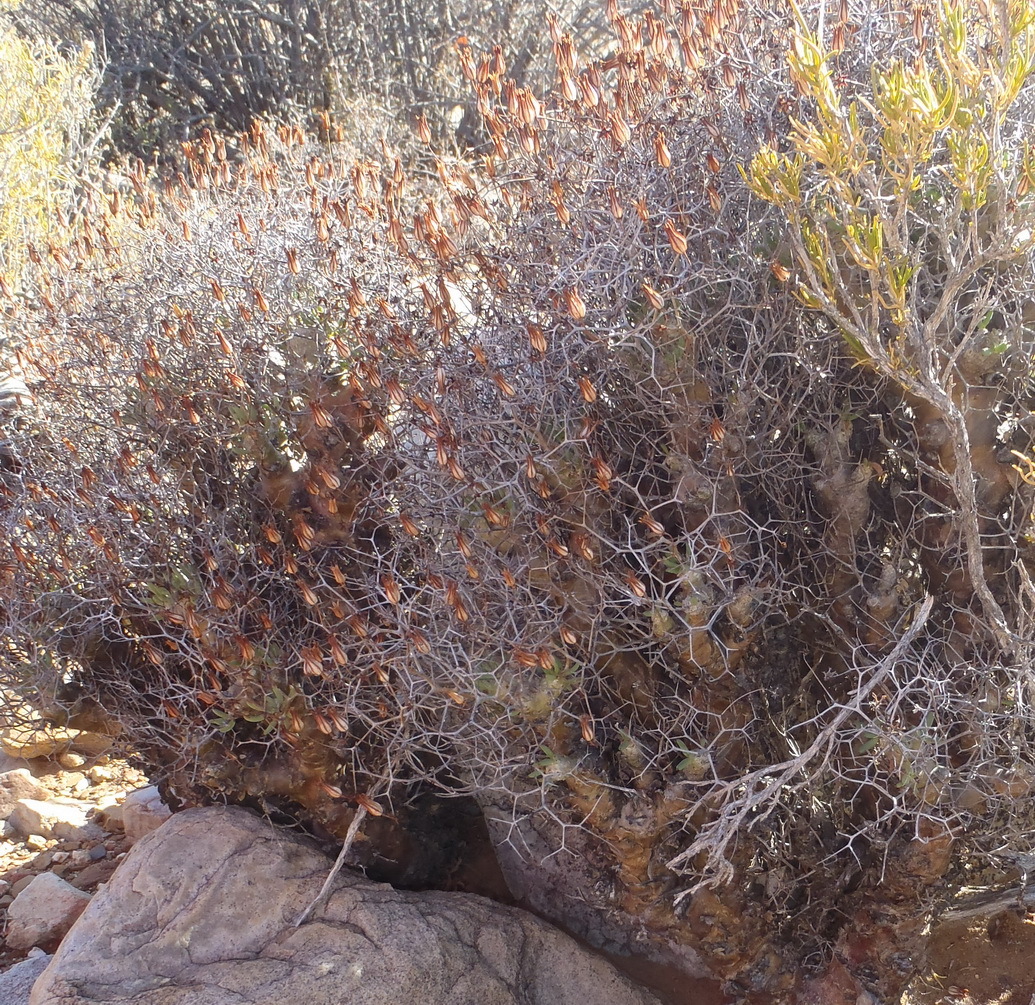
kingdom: Plantae
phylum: Tracheophyta
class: Magnoliopsida
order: Saxifragales
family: Crassulaceae
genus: Tylecodon
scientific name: Tylecodon reticulatus
